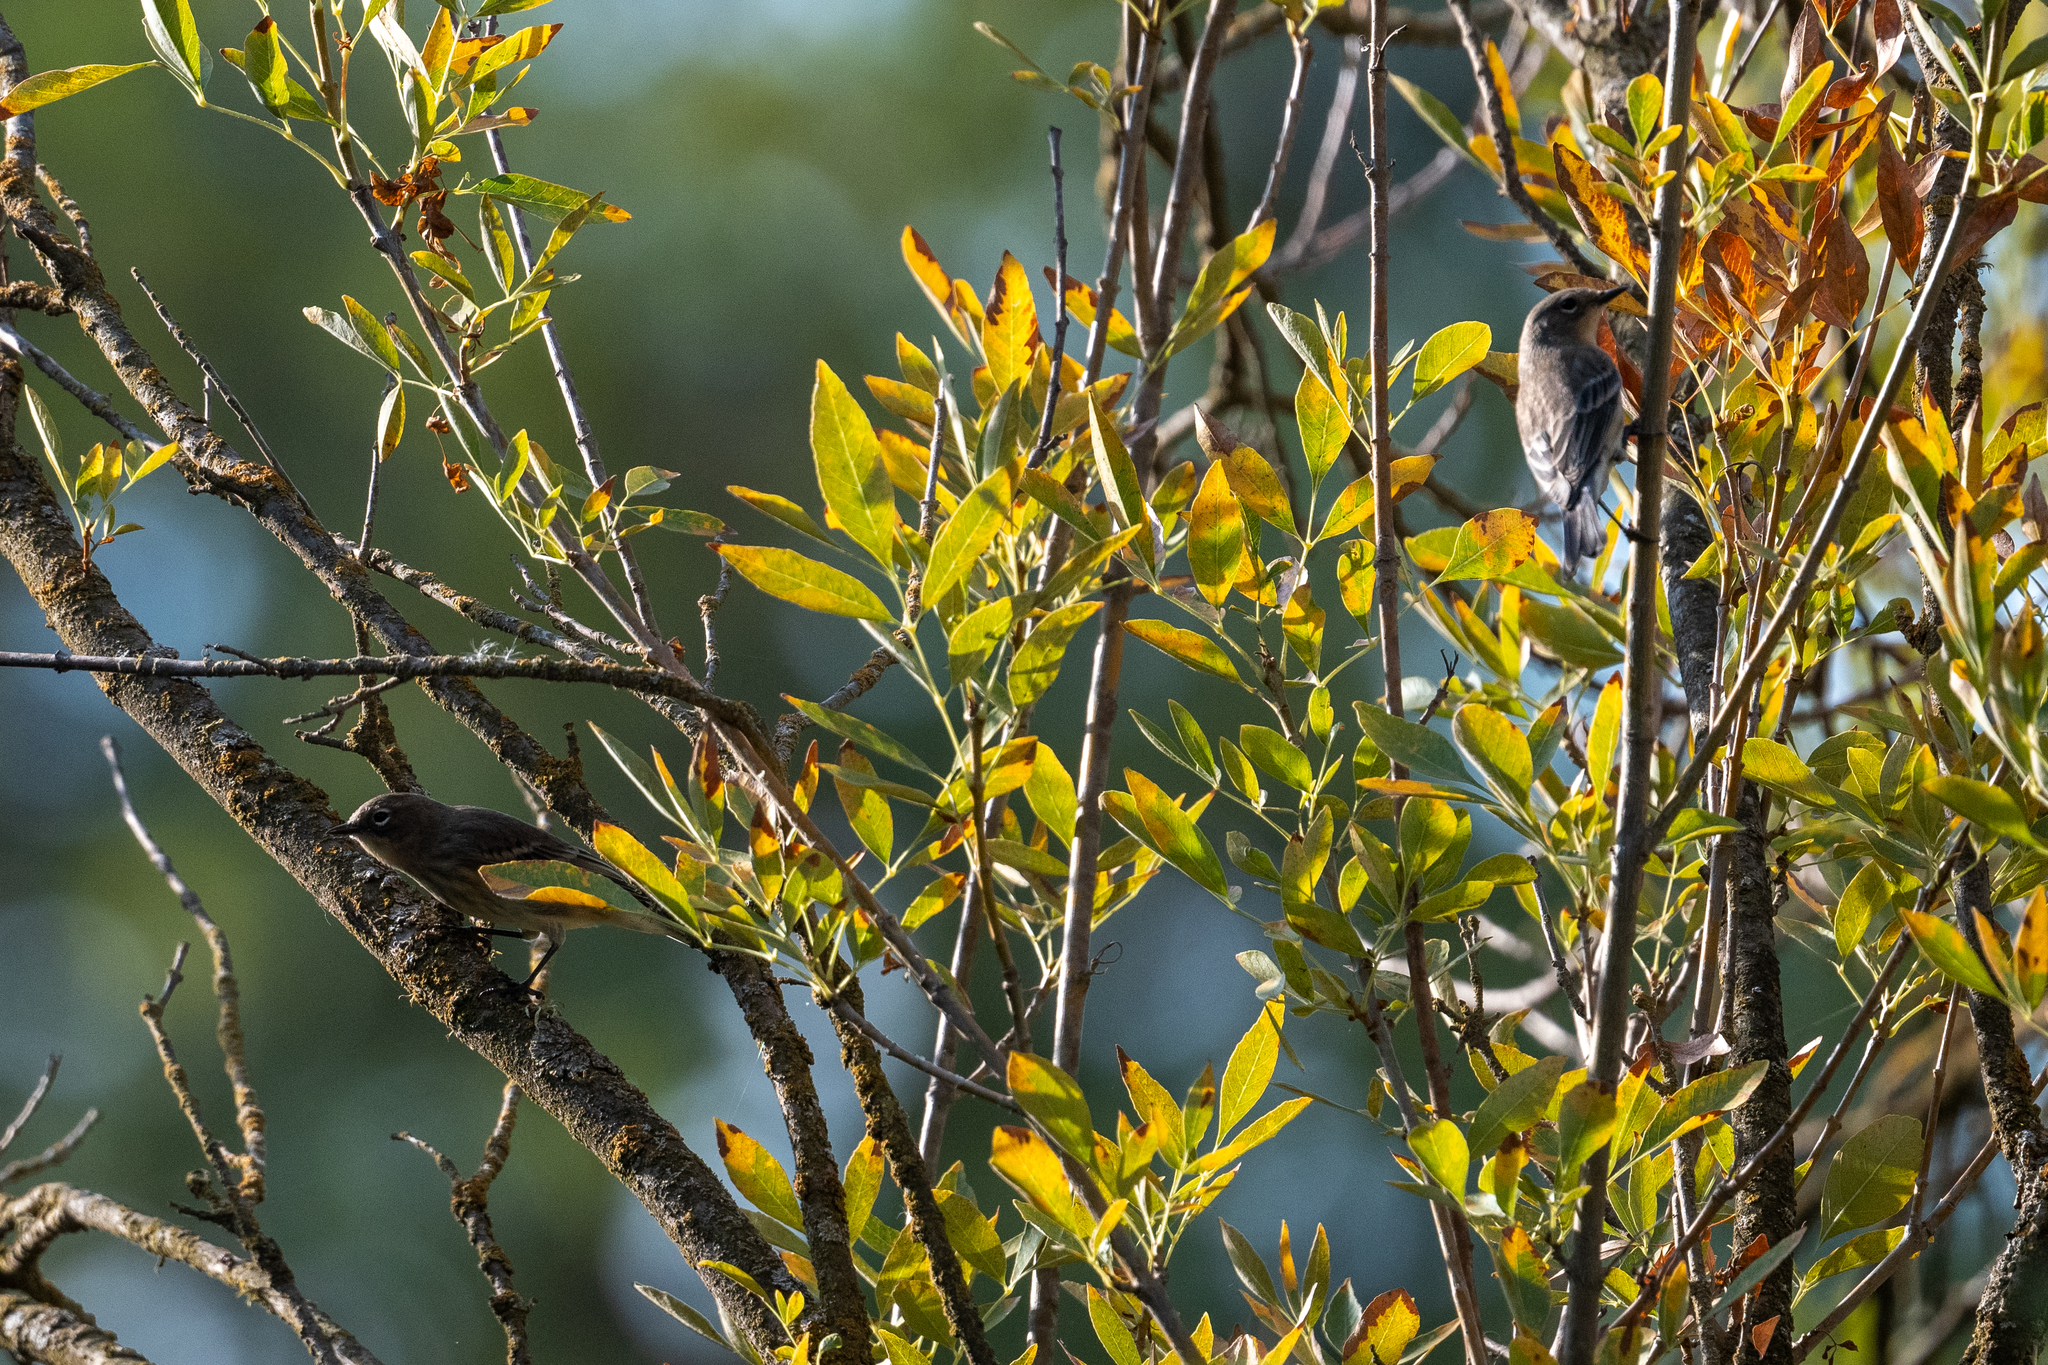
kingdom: Animalia
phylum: Chordata
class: Aves
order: Passeriformes
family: Parulidae
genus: Setophaga
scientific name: Setophaga coronata
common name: Myrtle warbler
